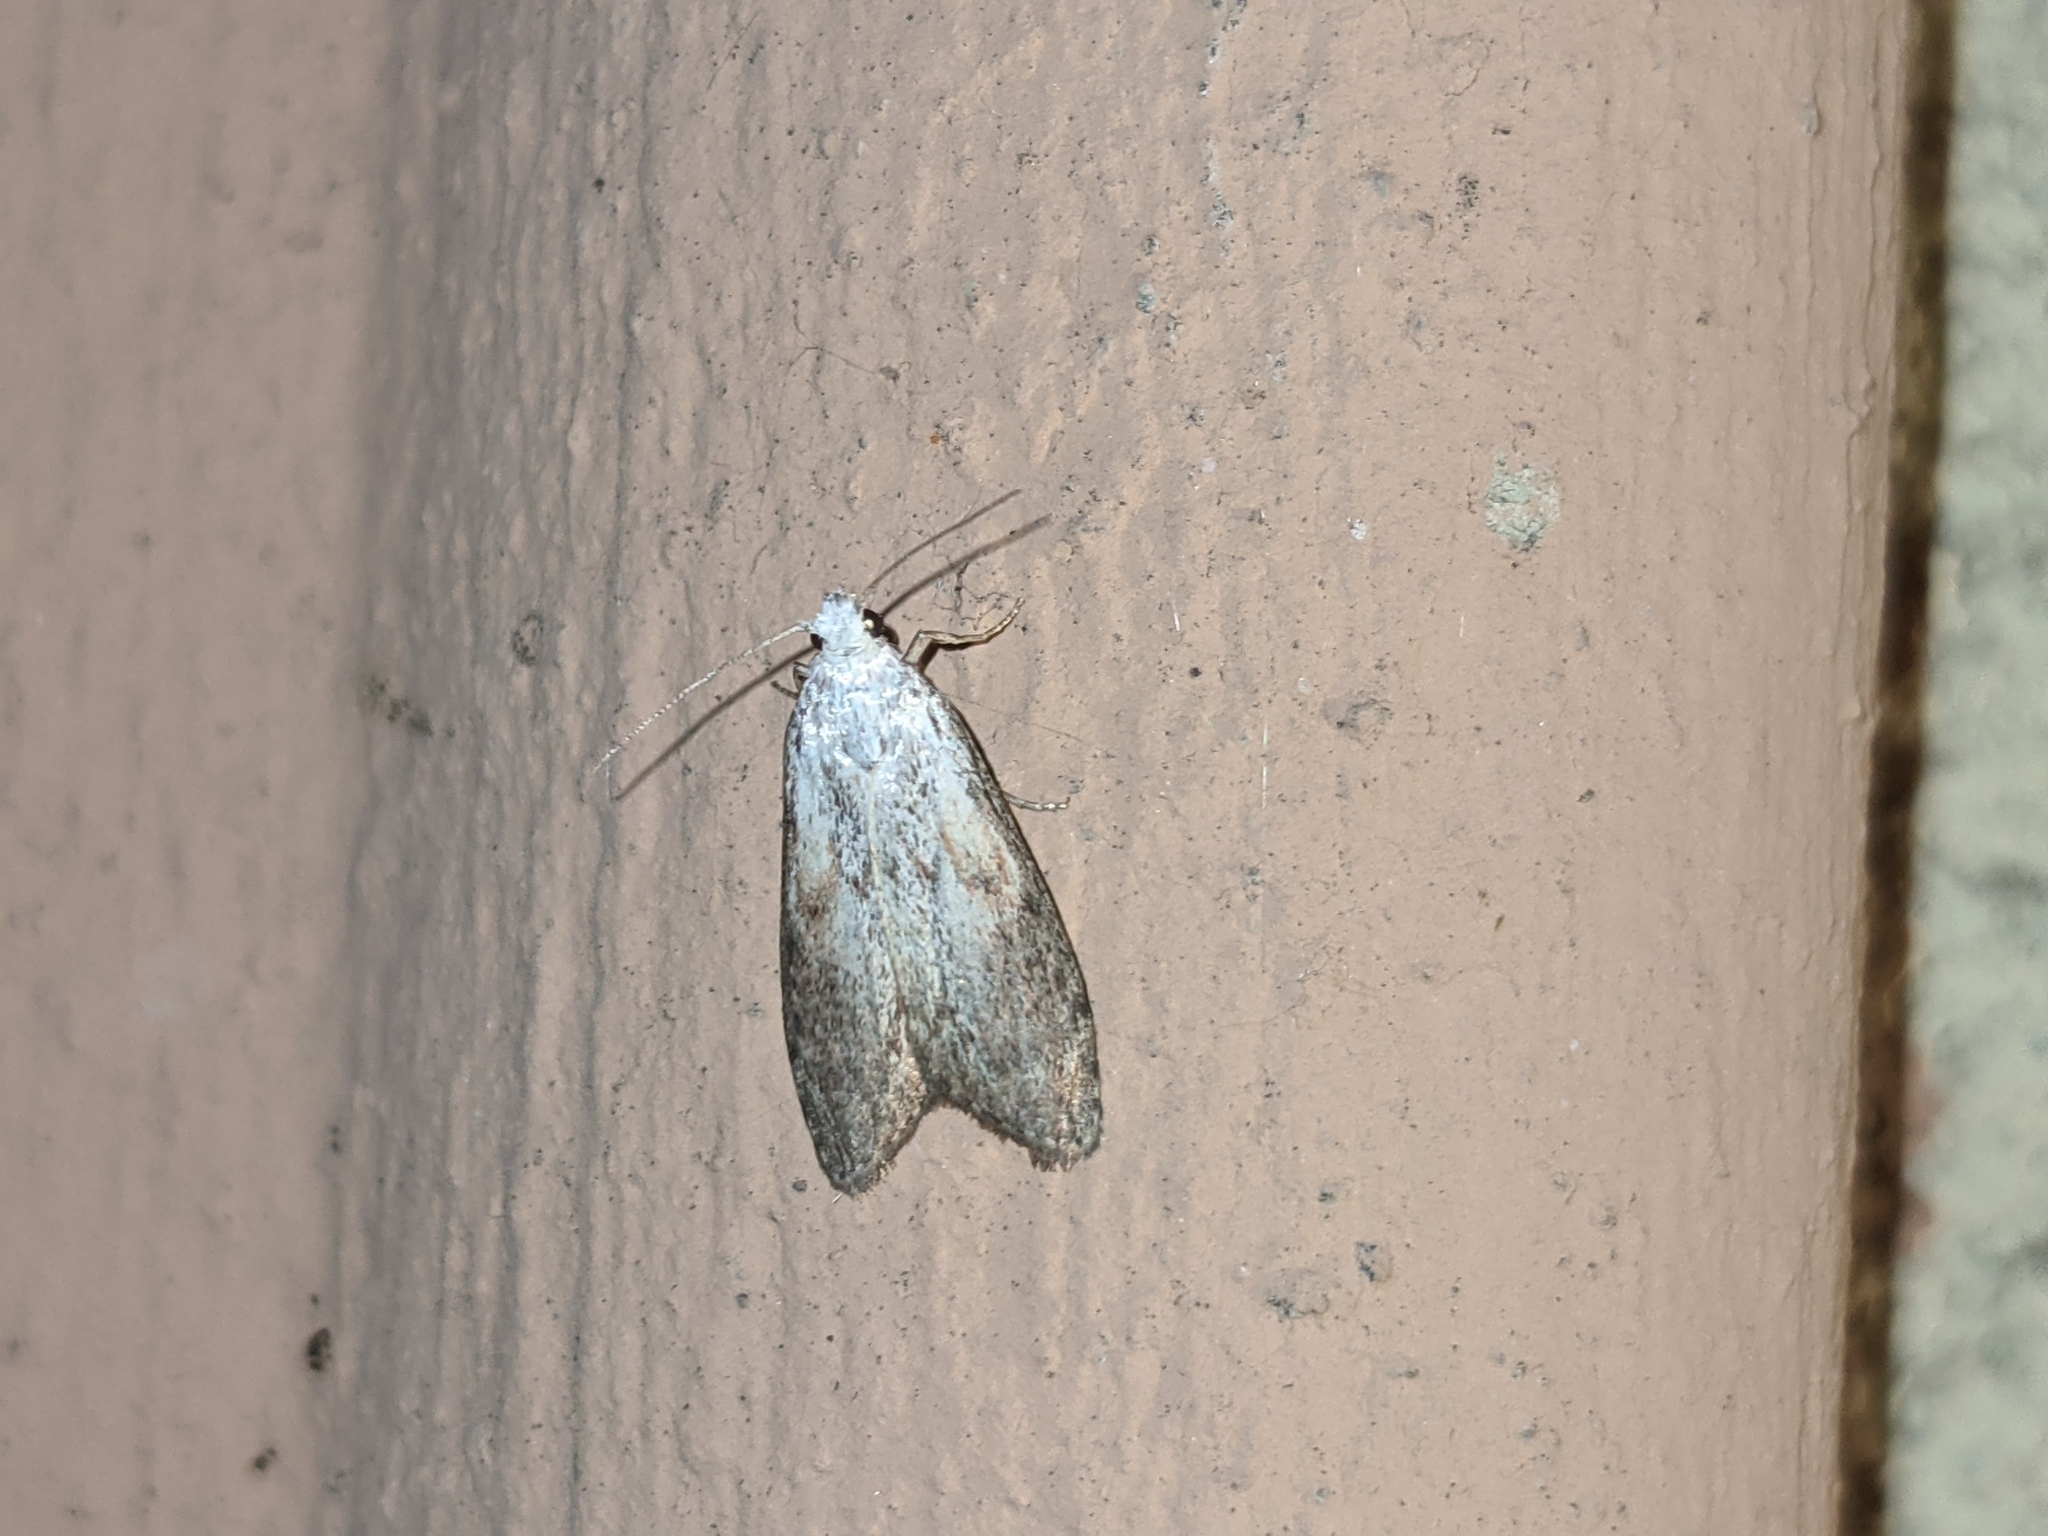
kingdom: Animalia
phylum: Arthropoda
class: Insecta
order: Lepidoptera
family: Pyralidae
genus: Aphomia
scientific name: Aphomia sociella
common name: Bee moth
